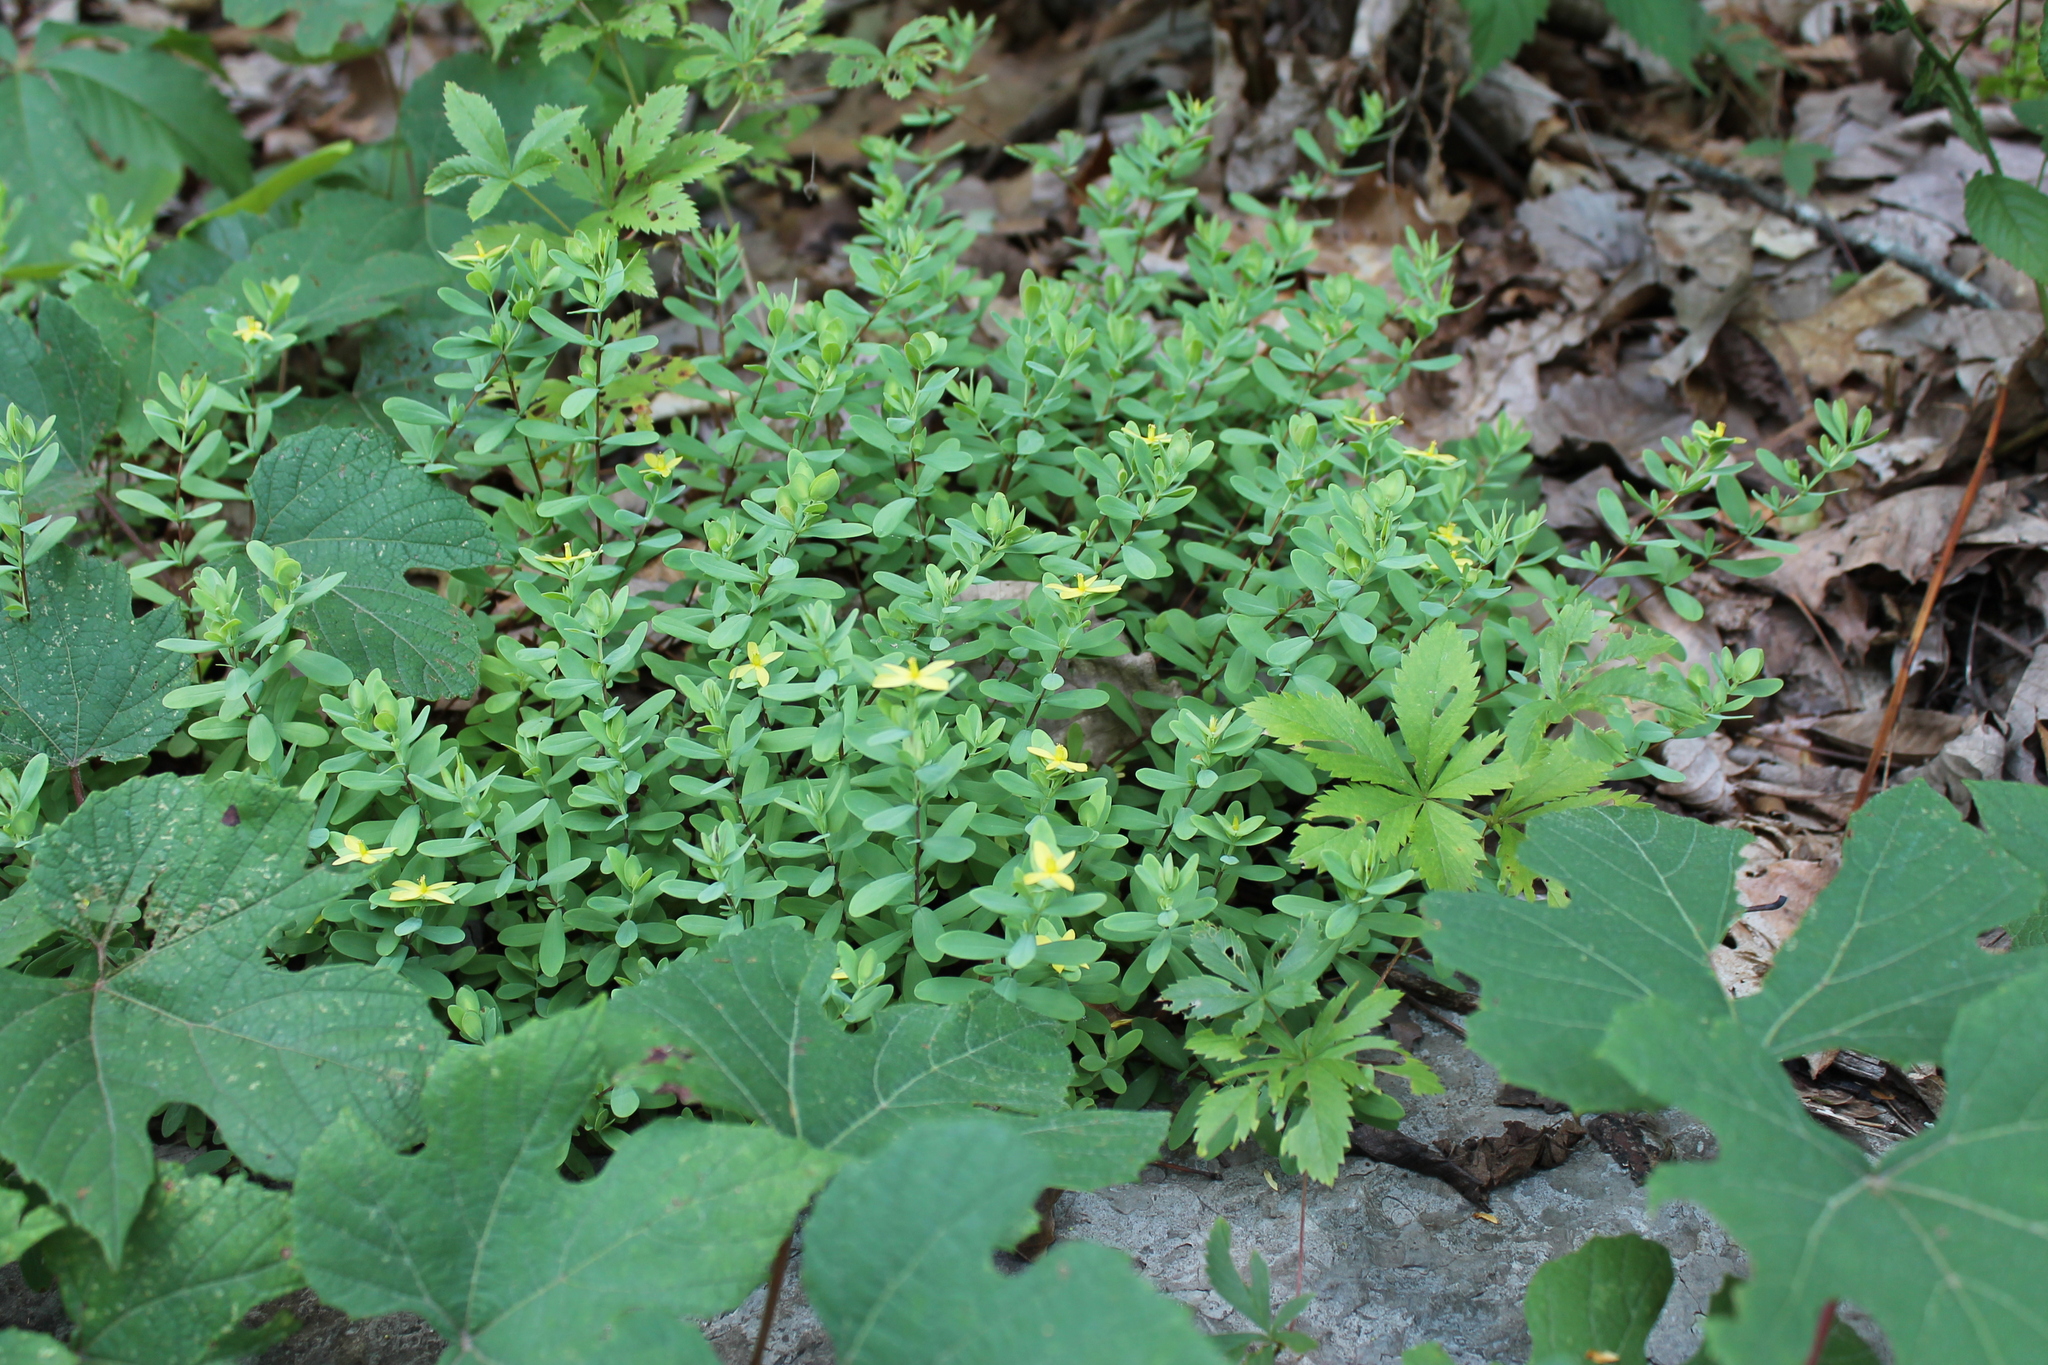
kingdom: Plantae
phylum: Tracheophyta
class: Magnoliopsida
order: Malpighiales
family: Hypericaceae
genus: Hypericum
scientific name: Hypericum hypericoides
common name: St. andrew's cross
